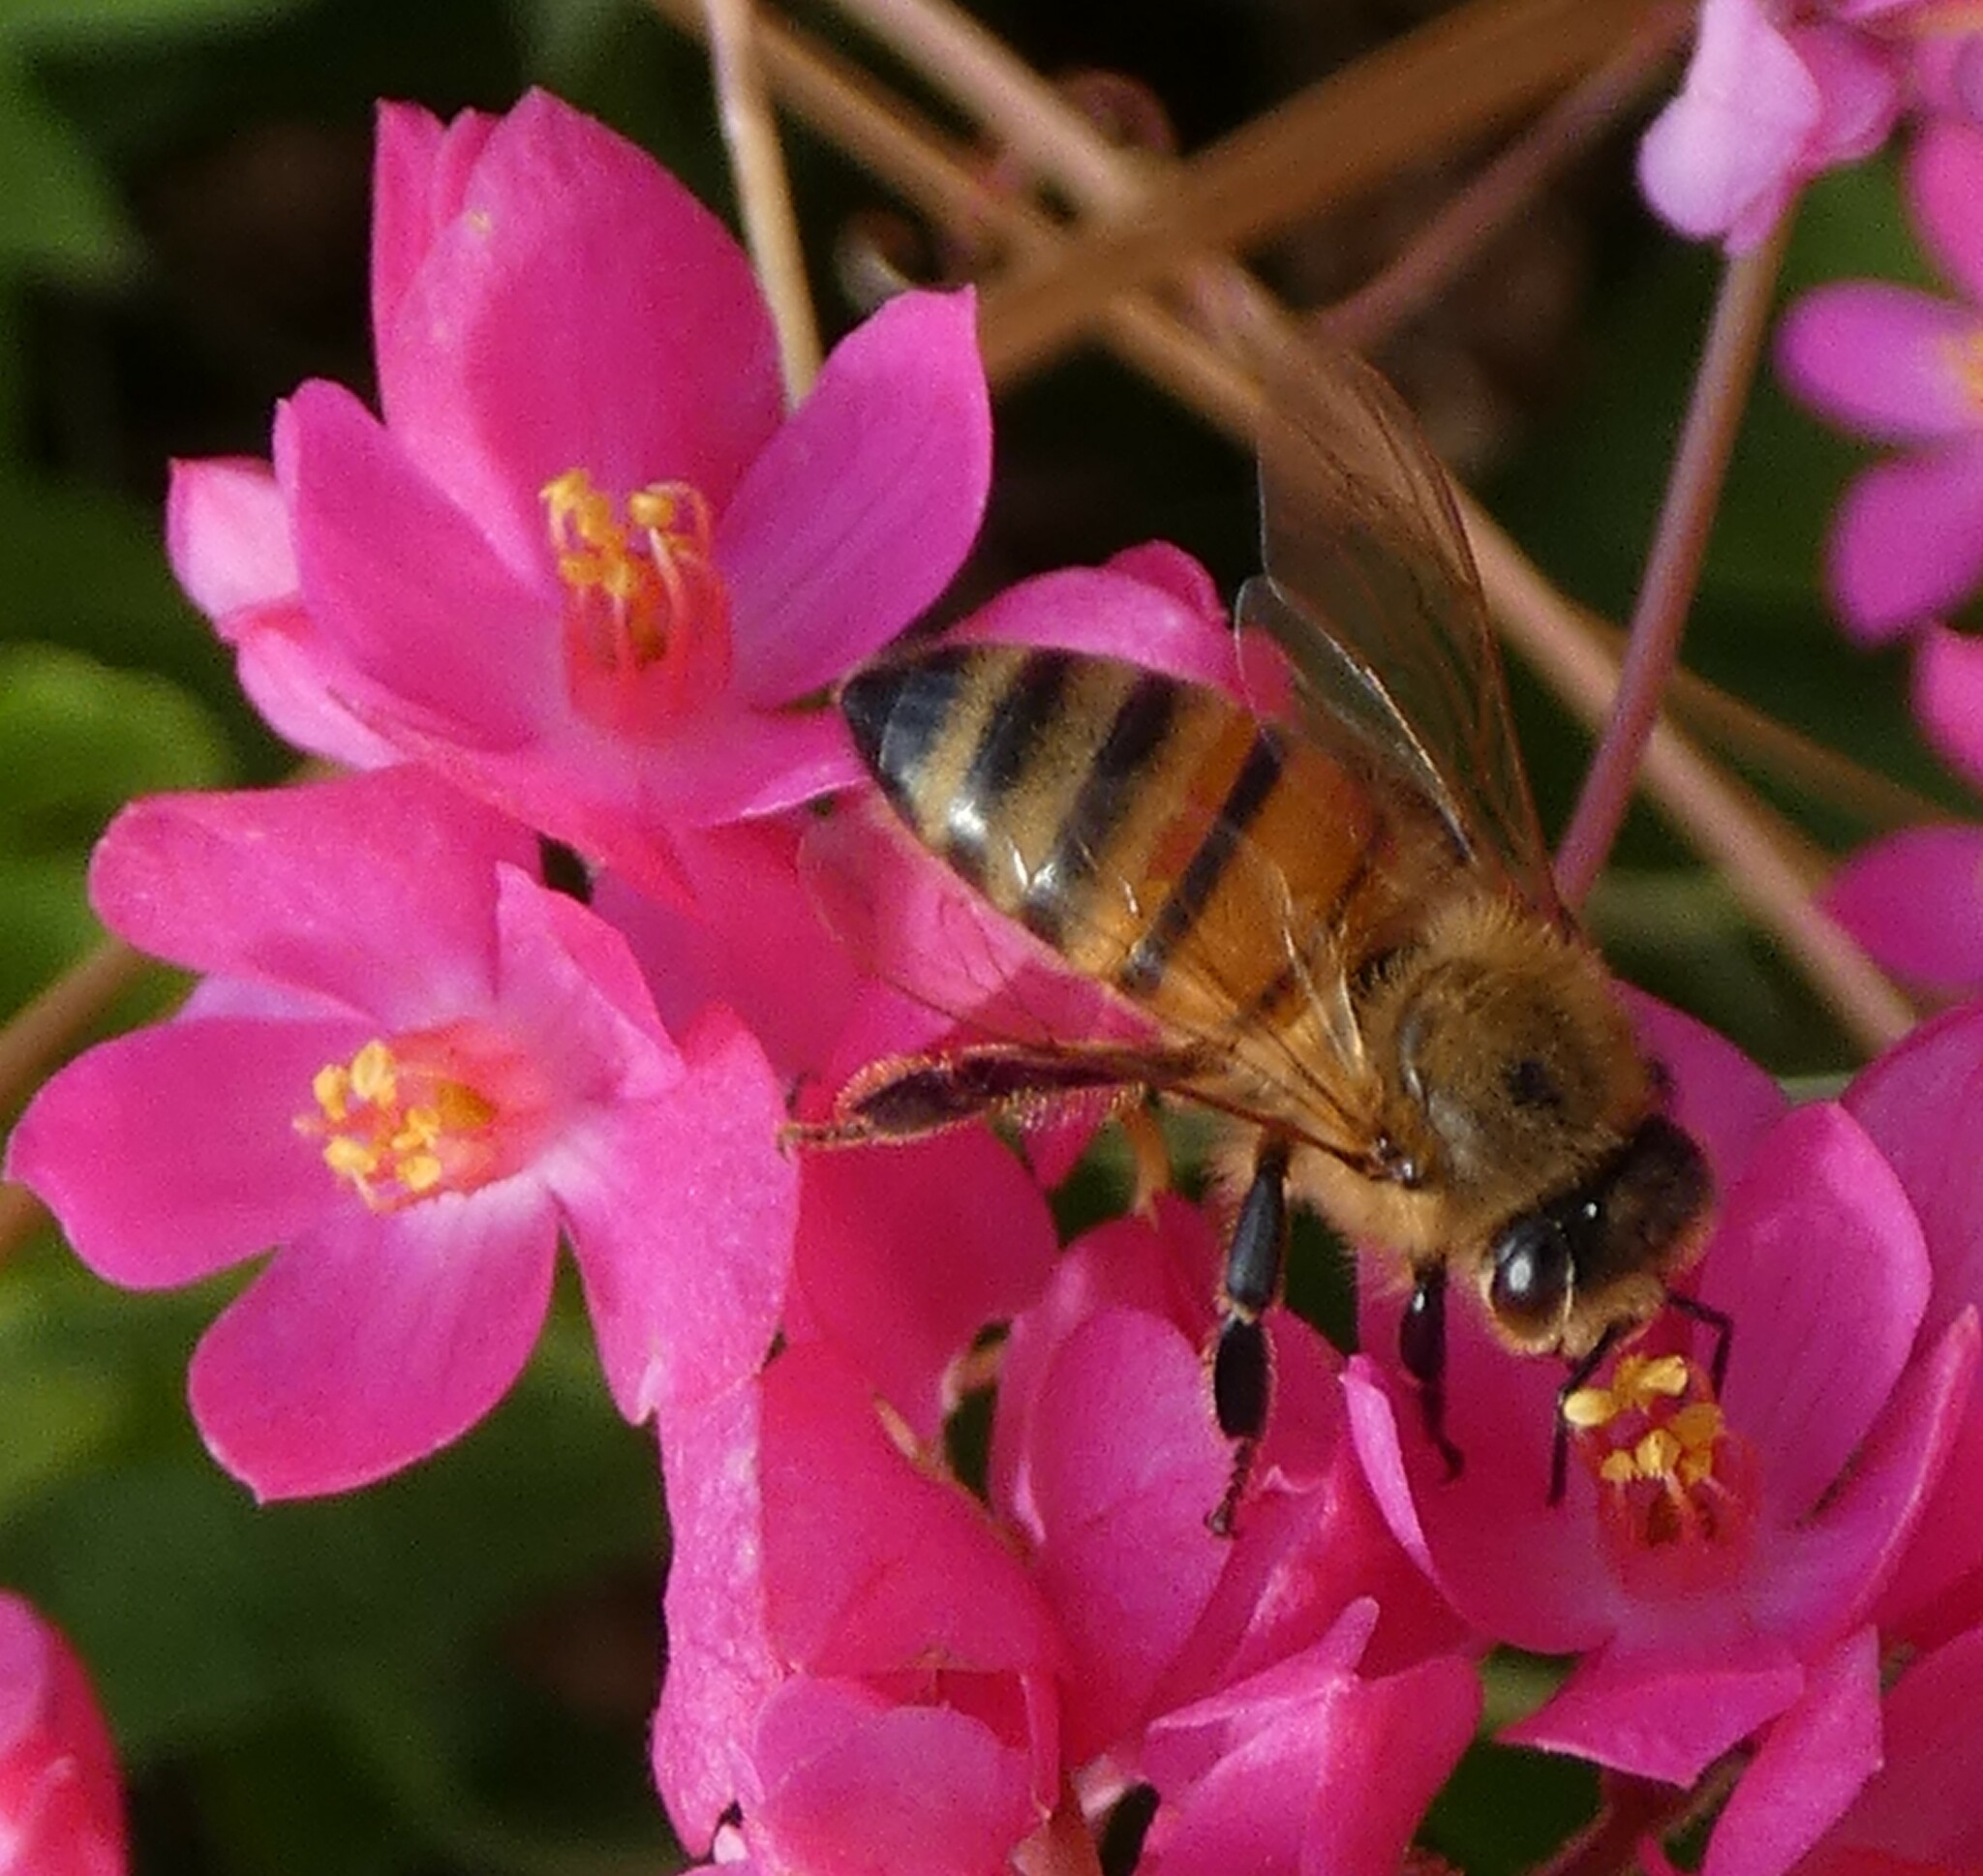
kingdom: Animalia
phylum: Arthropoda
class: Insecta
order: Hymenoptera
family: Apidae
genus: Apis
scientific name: Apis mellifera
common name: Honey bee
